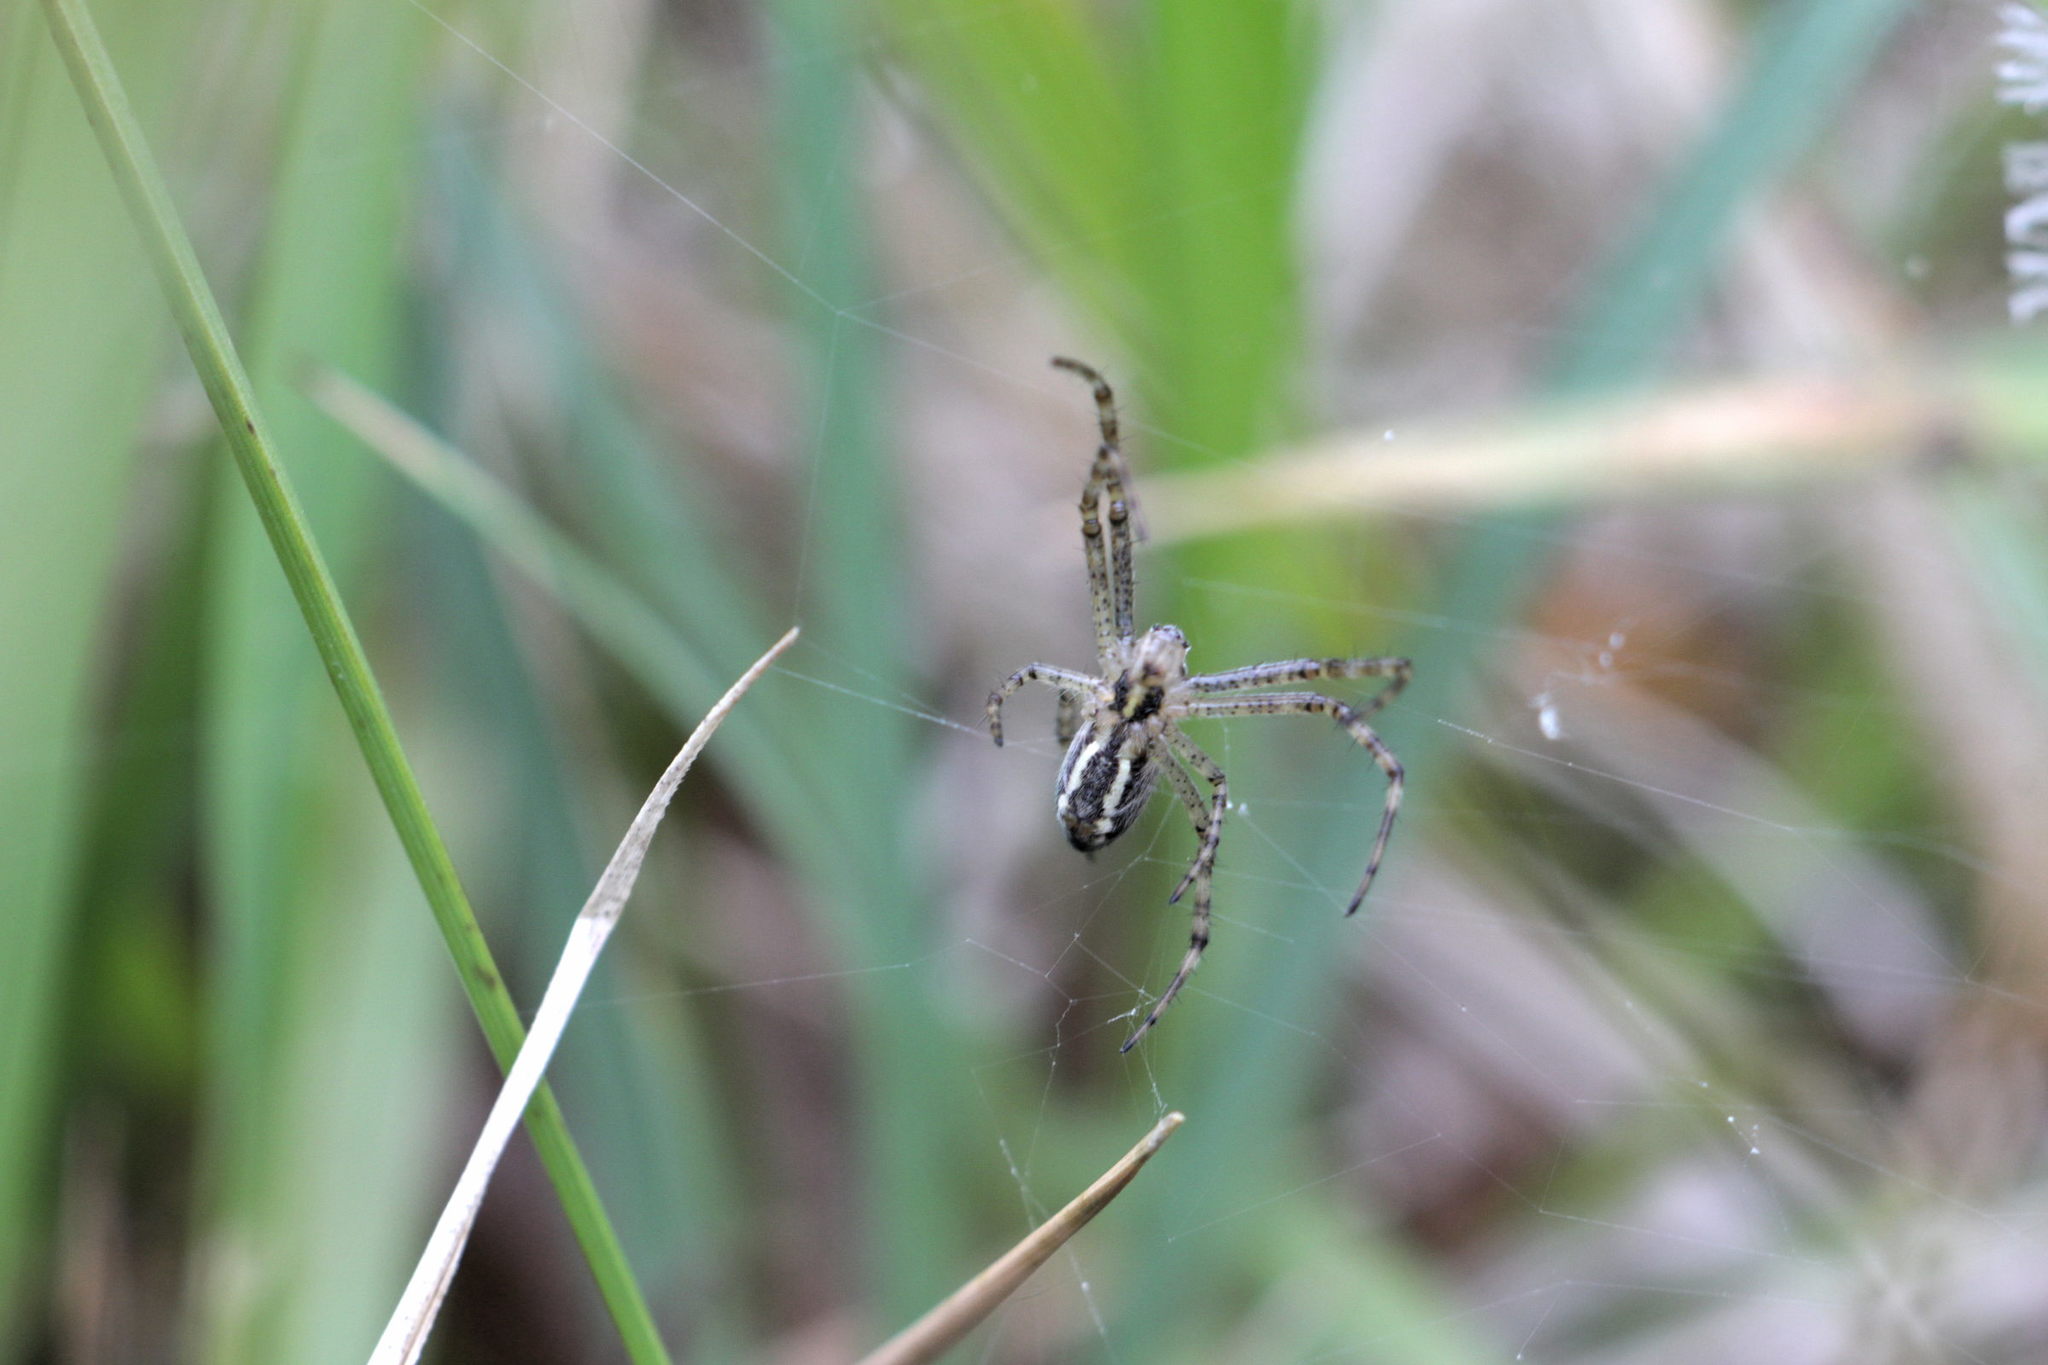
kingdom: Animalia
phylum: Arthropoda
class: Arachnida
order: Araneae
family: Araneidae
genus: Argiope
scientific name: Argiope bruennichi
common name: Wasp spider
